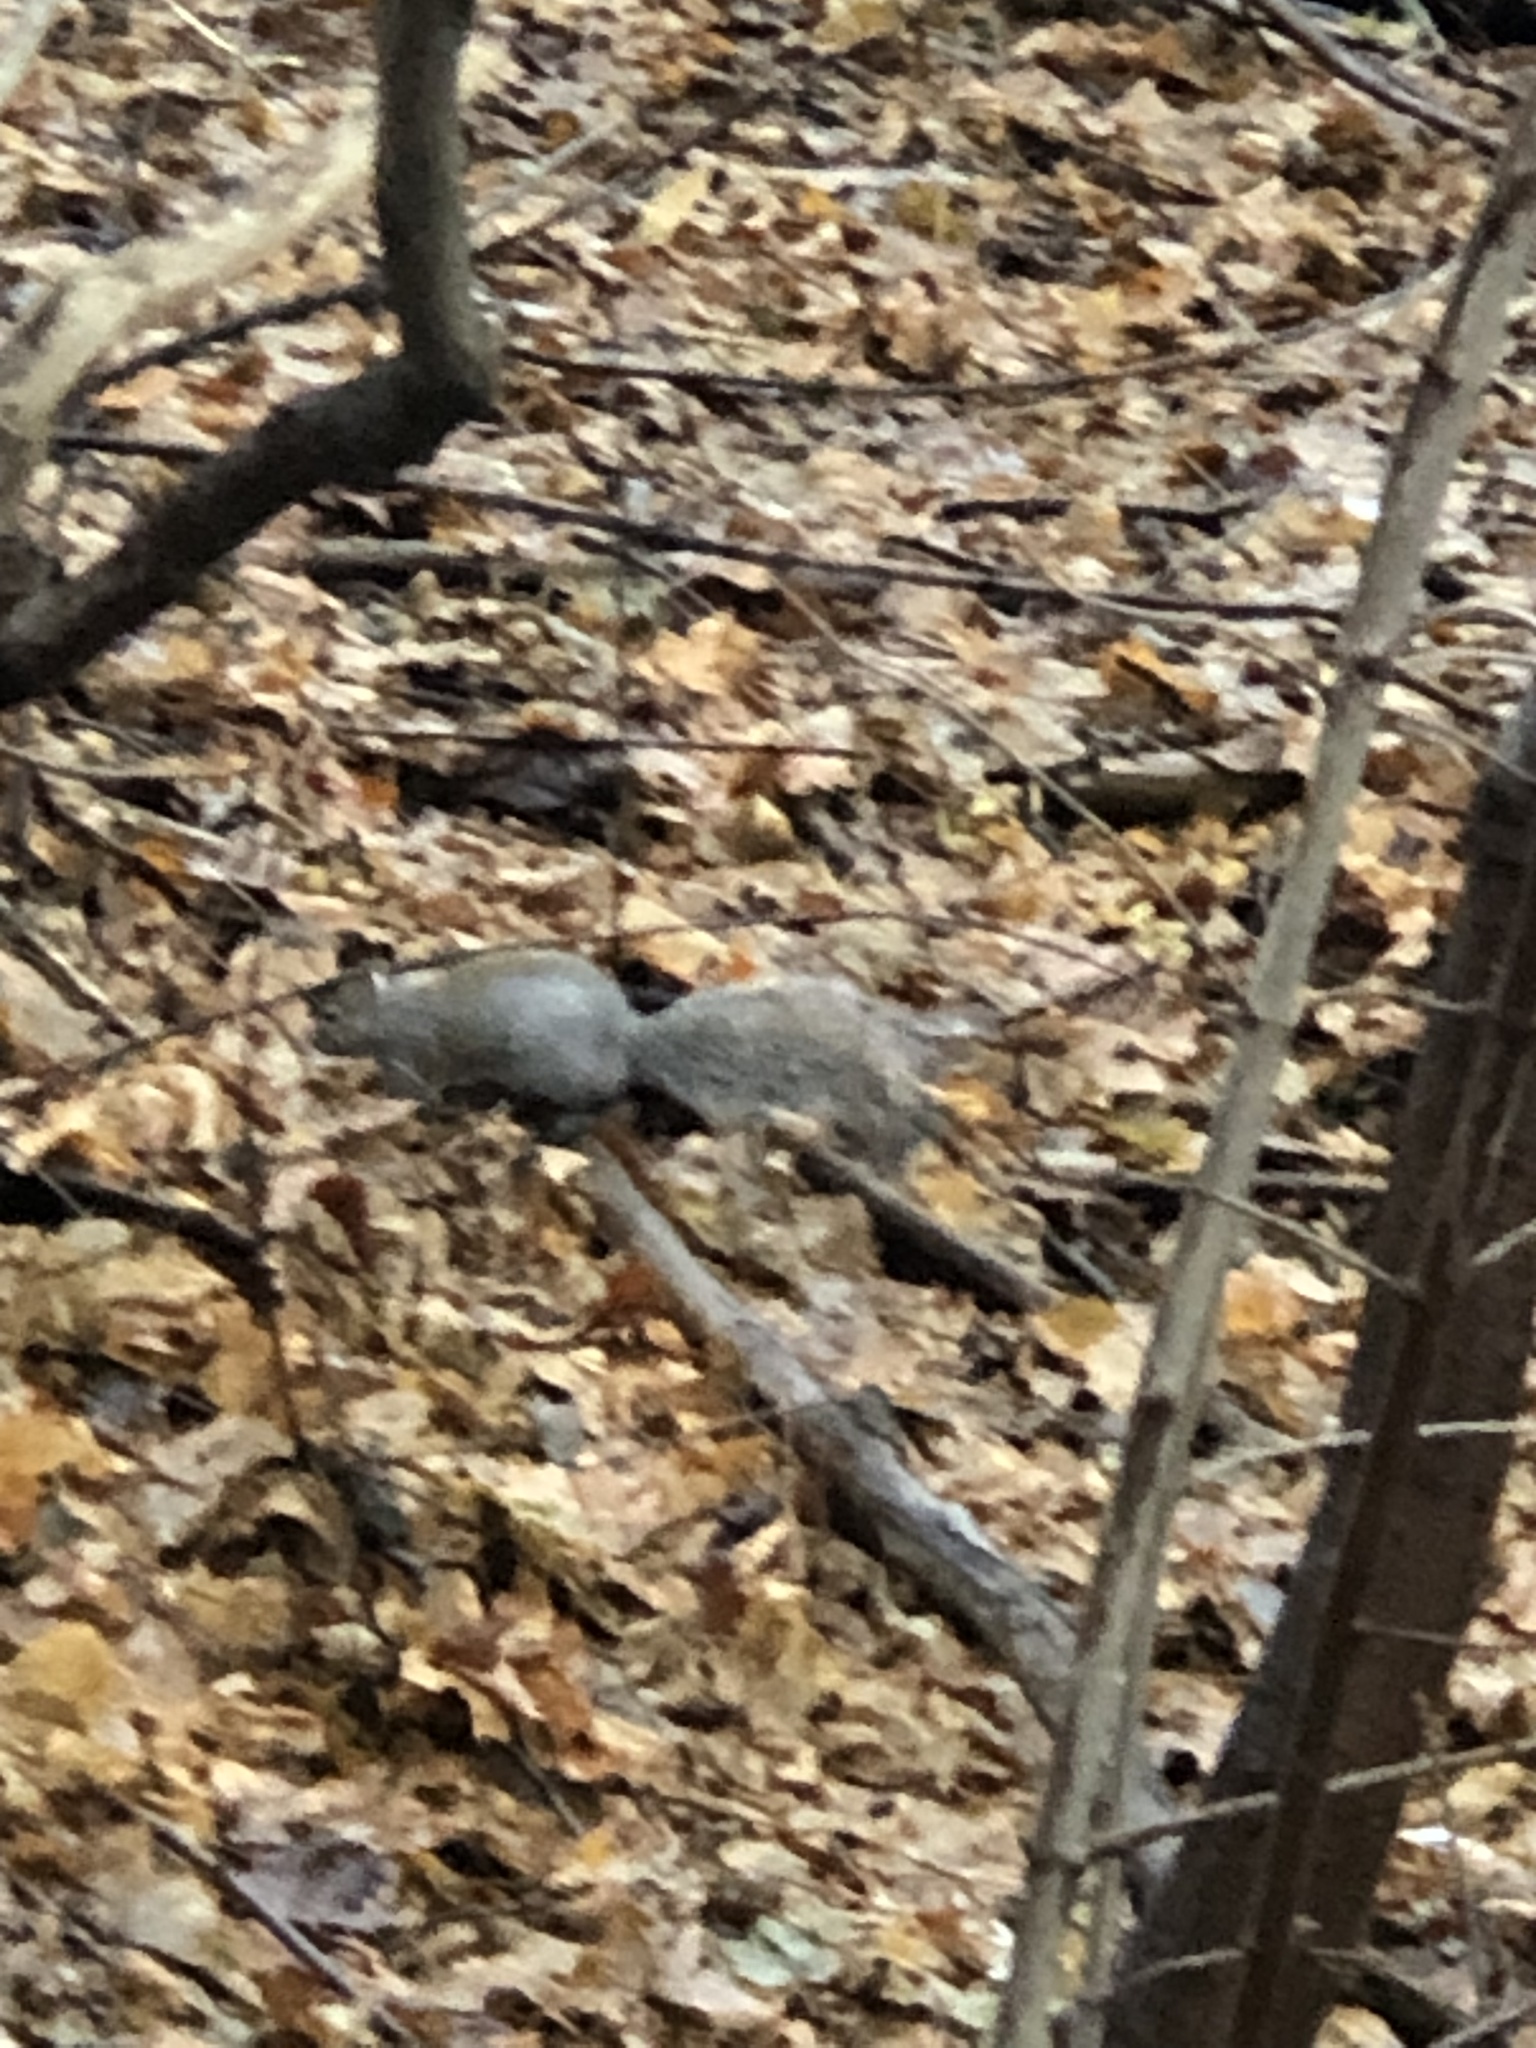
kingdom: Animalia
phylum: Chordata
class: Mammalia
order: Rodentia
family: Sciuridae
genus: Sciurus
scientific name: Sciurus carolinensis
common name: Eastern gray squirrel
